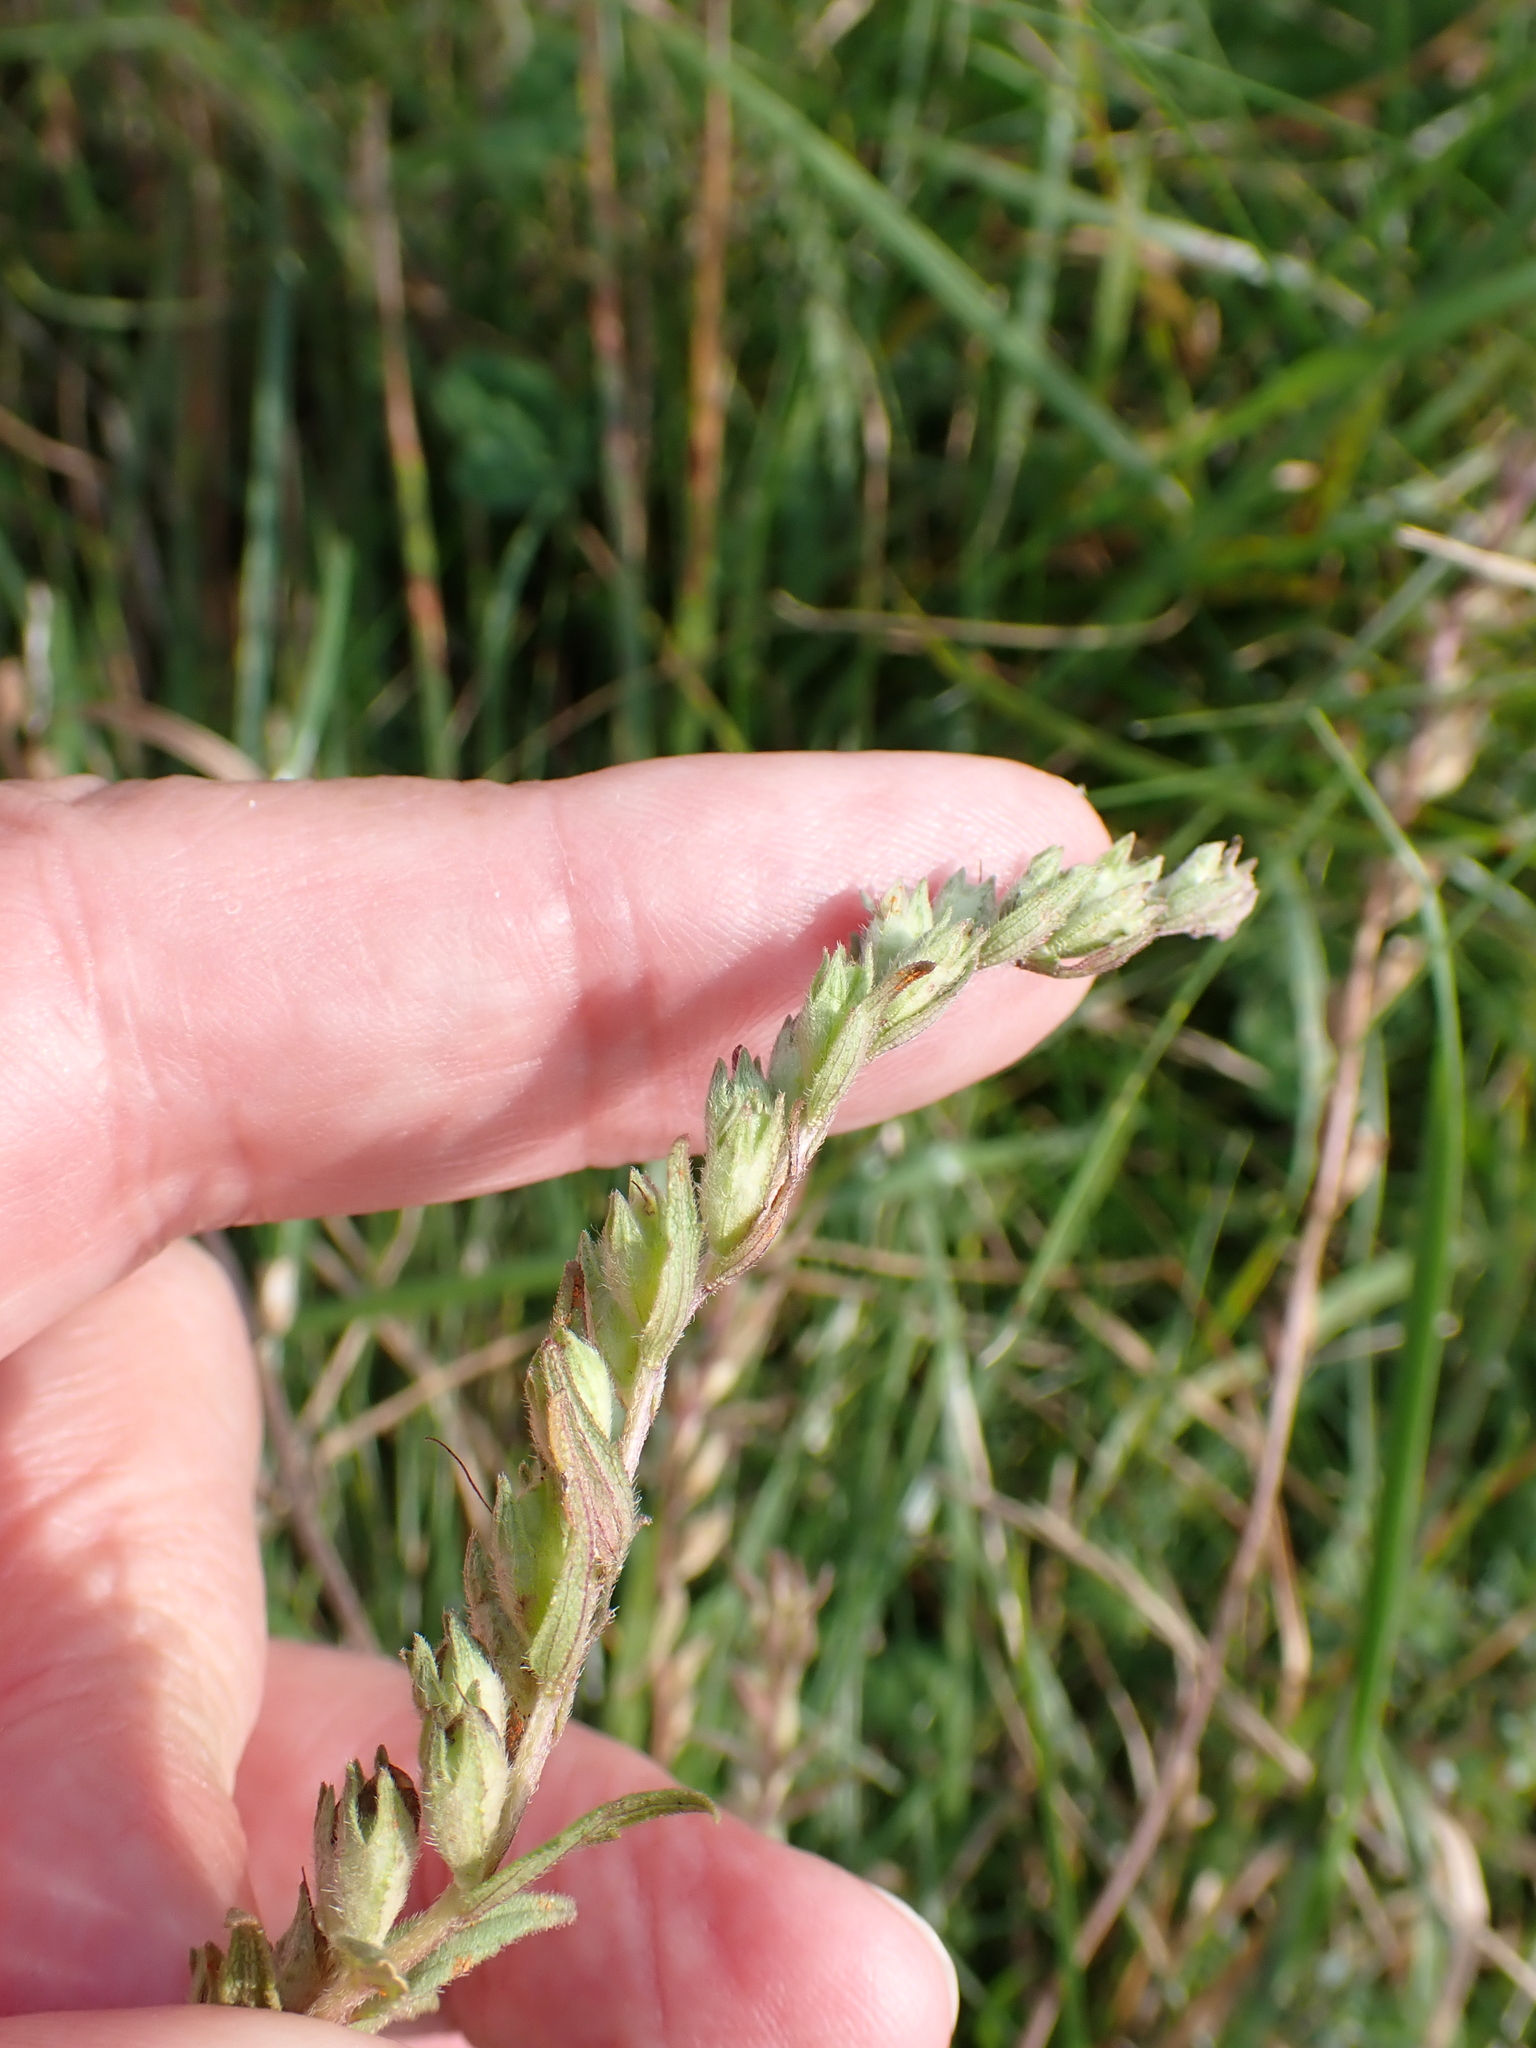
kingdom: Plantae
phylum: Tracheophyta
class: Magnoliopsida
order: Lamiales
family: Orobanchaceae
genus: Odontites
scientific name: Odontites vulgaris
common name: Broomrape
